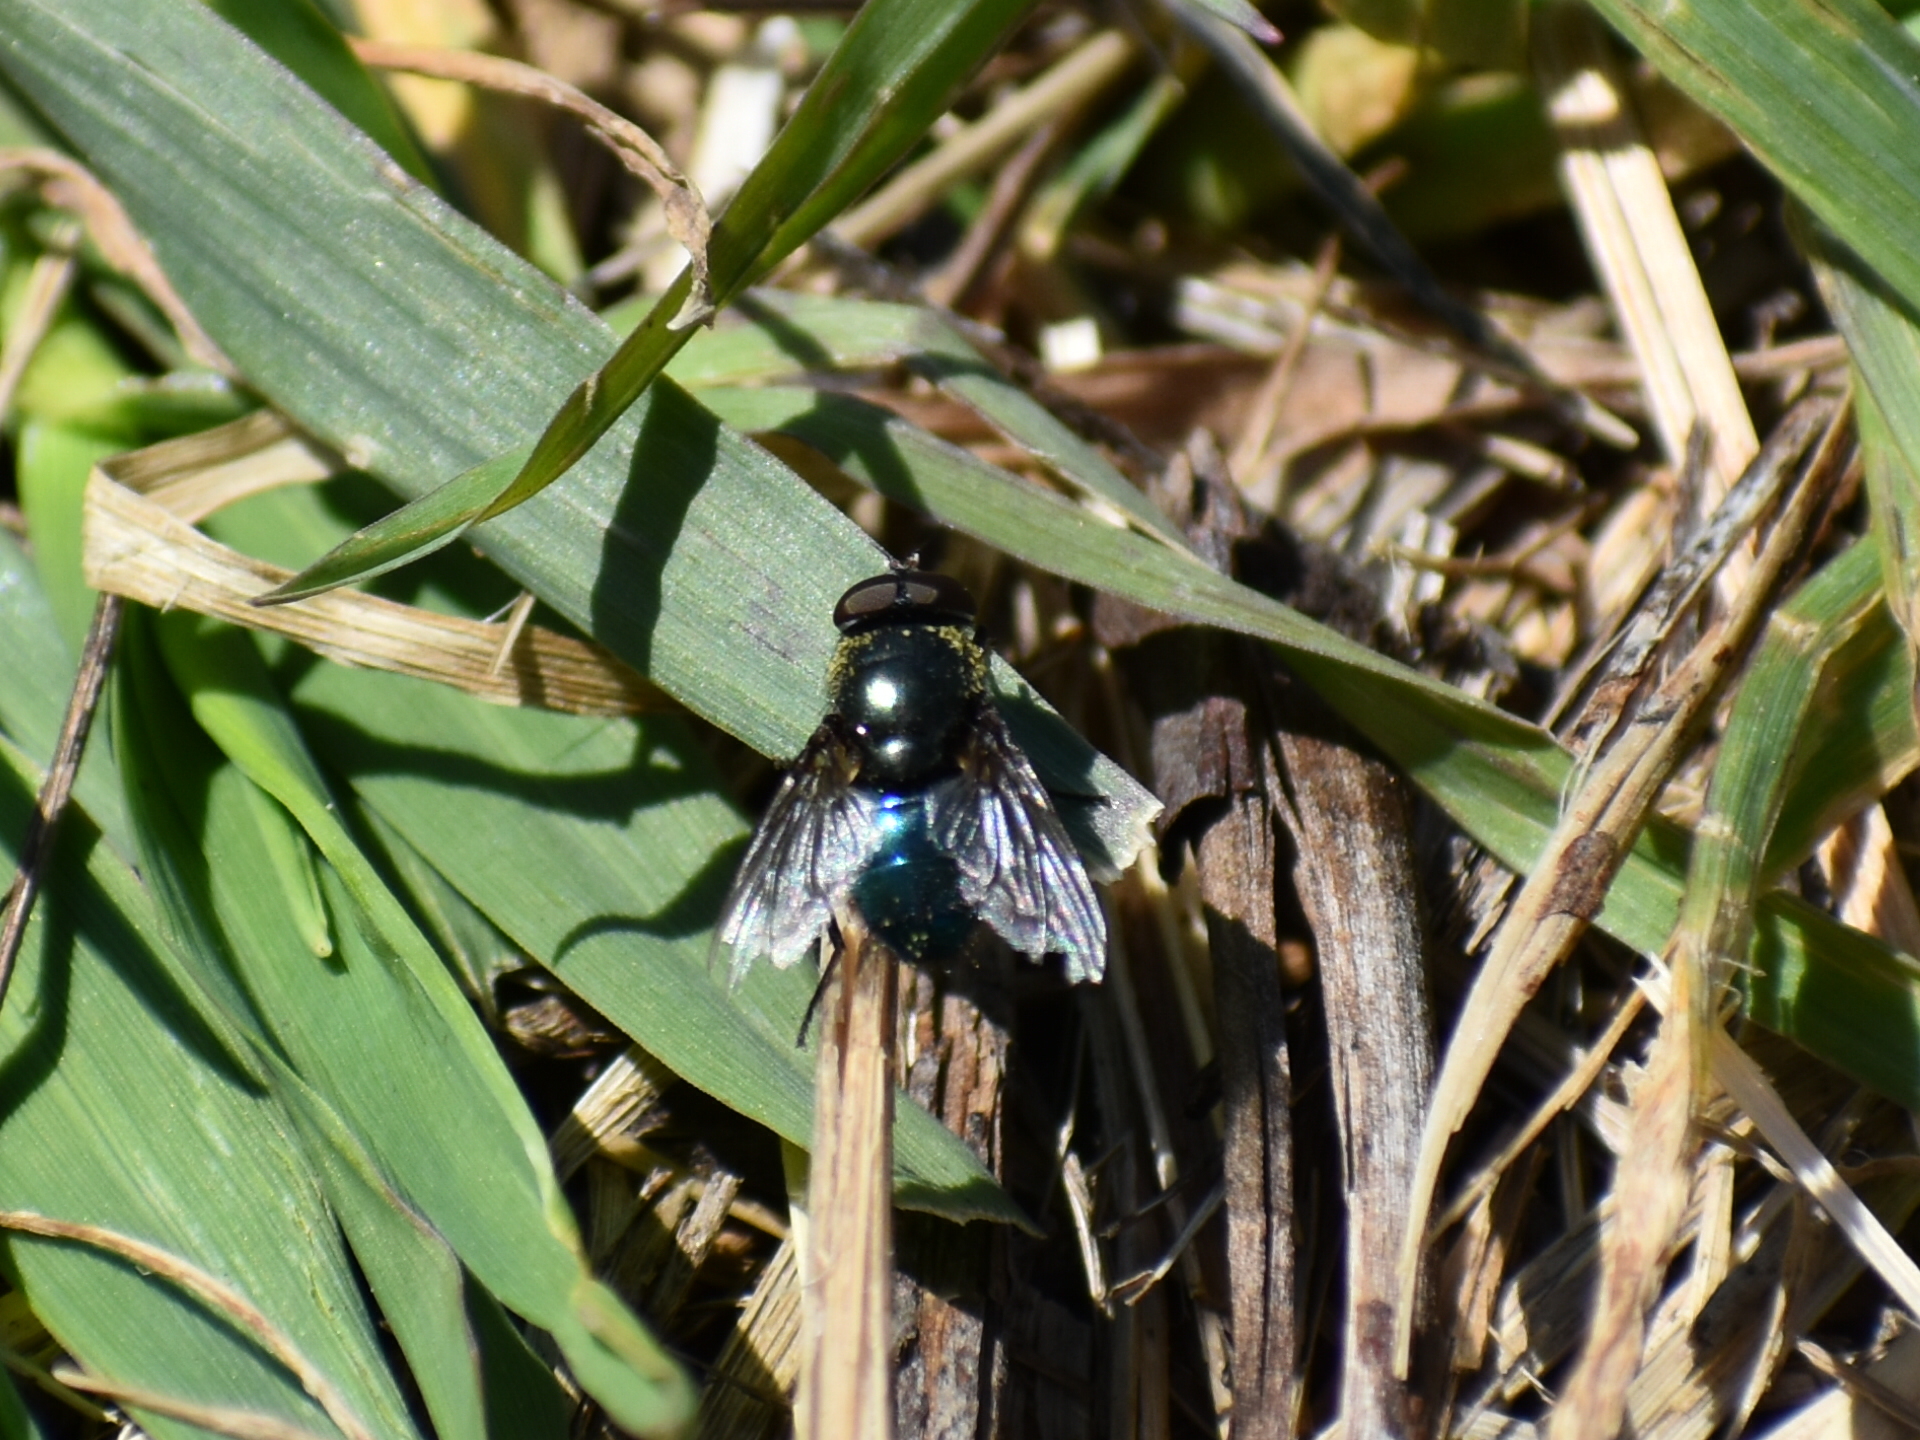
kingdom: Animalia
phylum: Arthropoda
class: Insecta
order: Diptera
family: Calliphoridae
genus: Phormia
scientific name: Phormia regina
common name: Black blow fly
